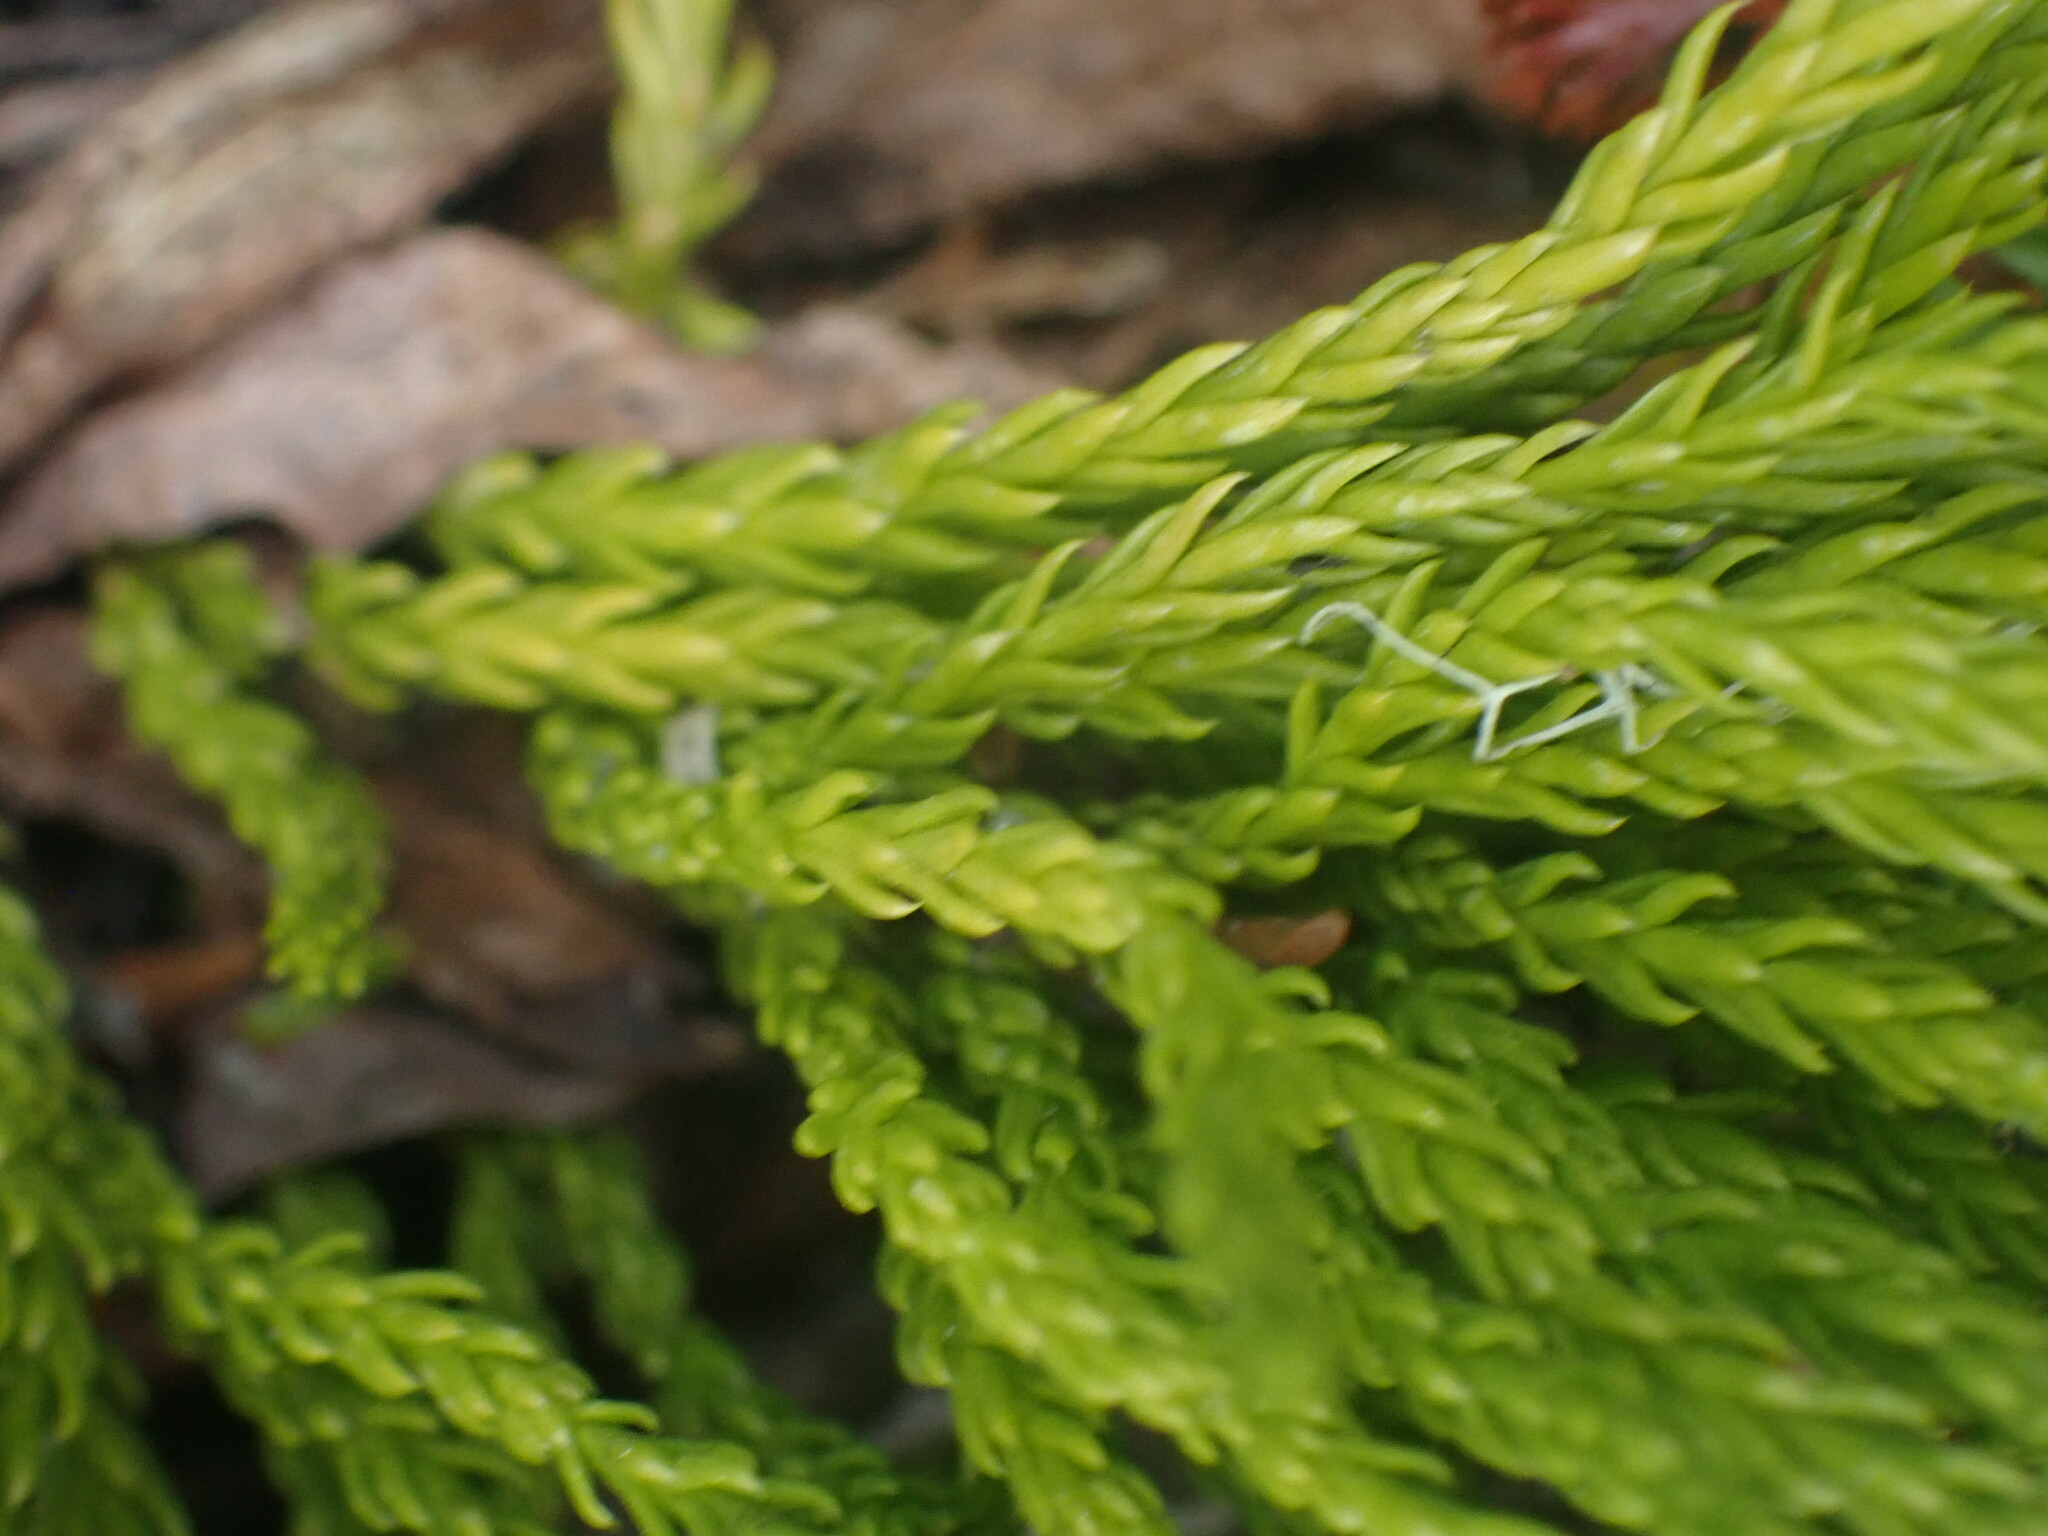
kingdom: Plantae
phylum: Tracheophyta
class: Lycopodiopsida
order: Lycopodiales
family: Lycopodiaceae
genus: Diphasiastrum
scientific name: Diphasiastrum sitchense
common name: Alaska clubmoss
